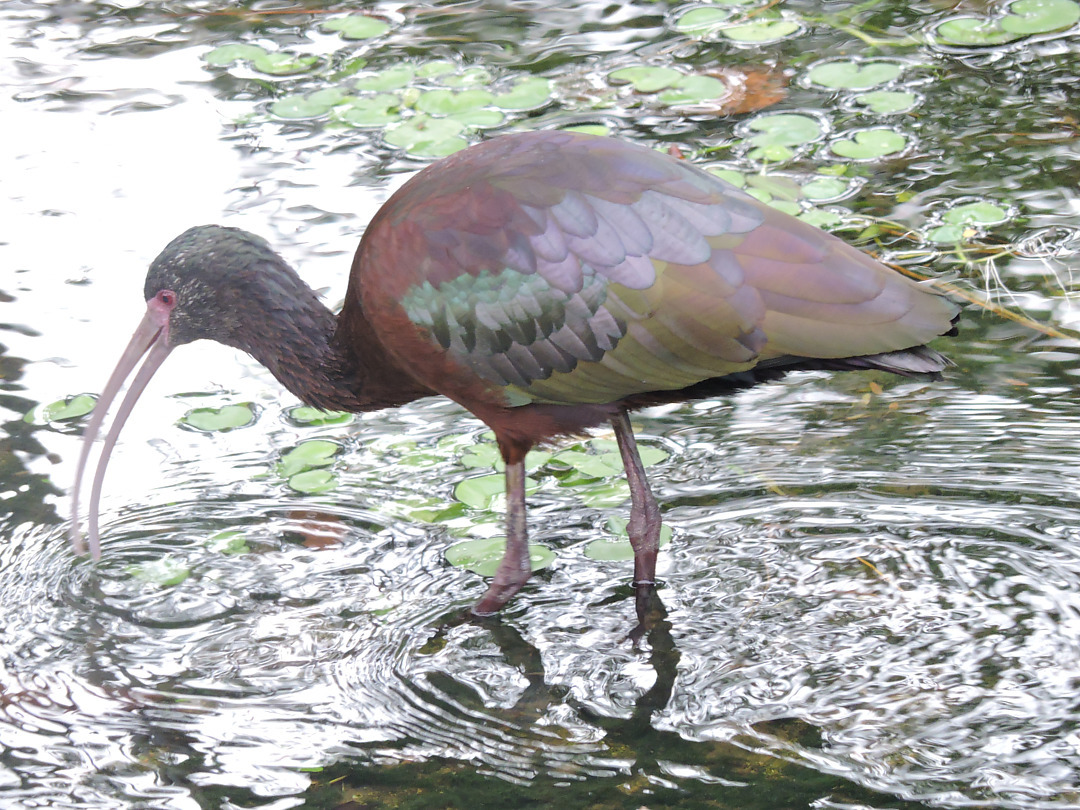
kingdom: Animalia
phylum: Chordata
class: Aves
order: Pelecaniformes
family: Threskiornithidae
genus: Plegadis
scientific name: Plegadis chihi
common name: White-faced ibis
